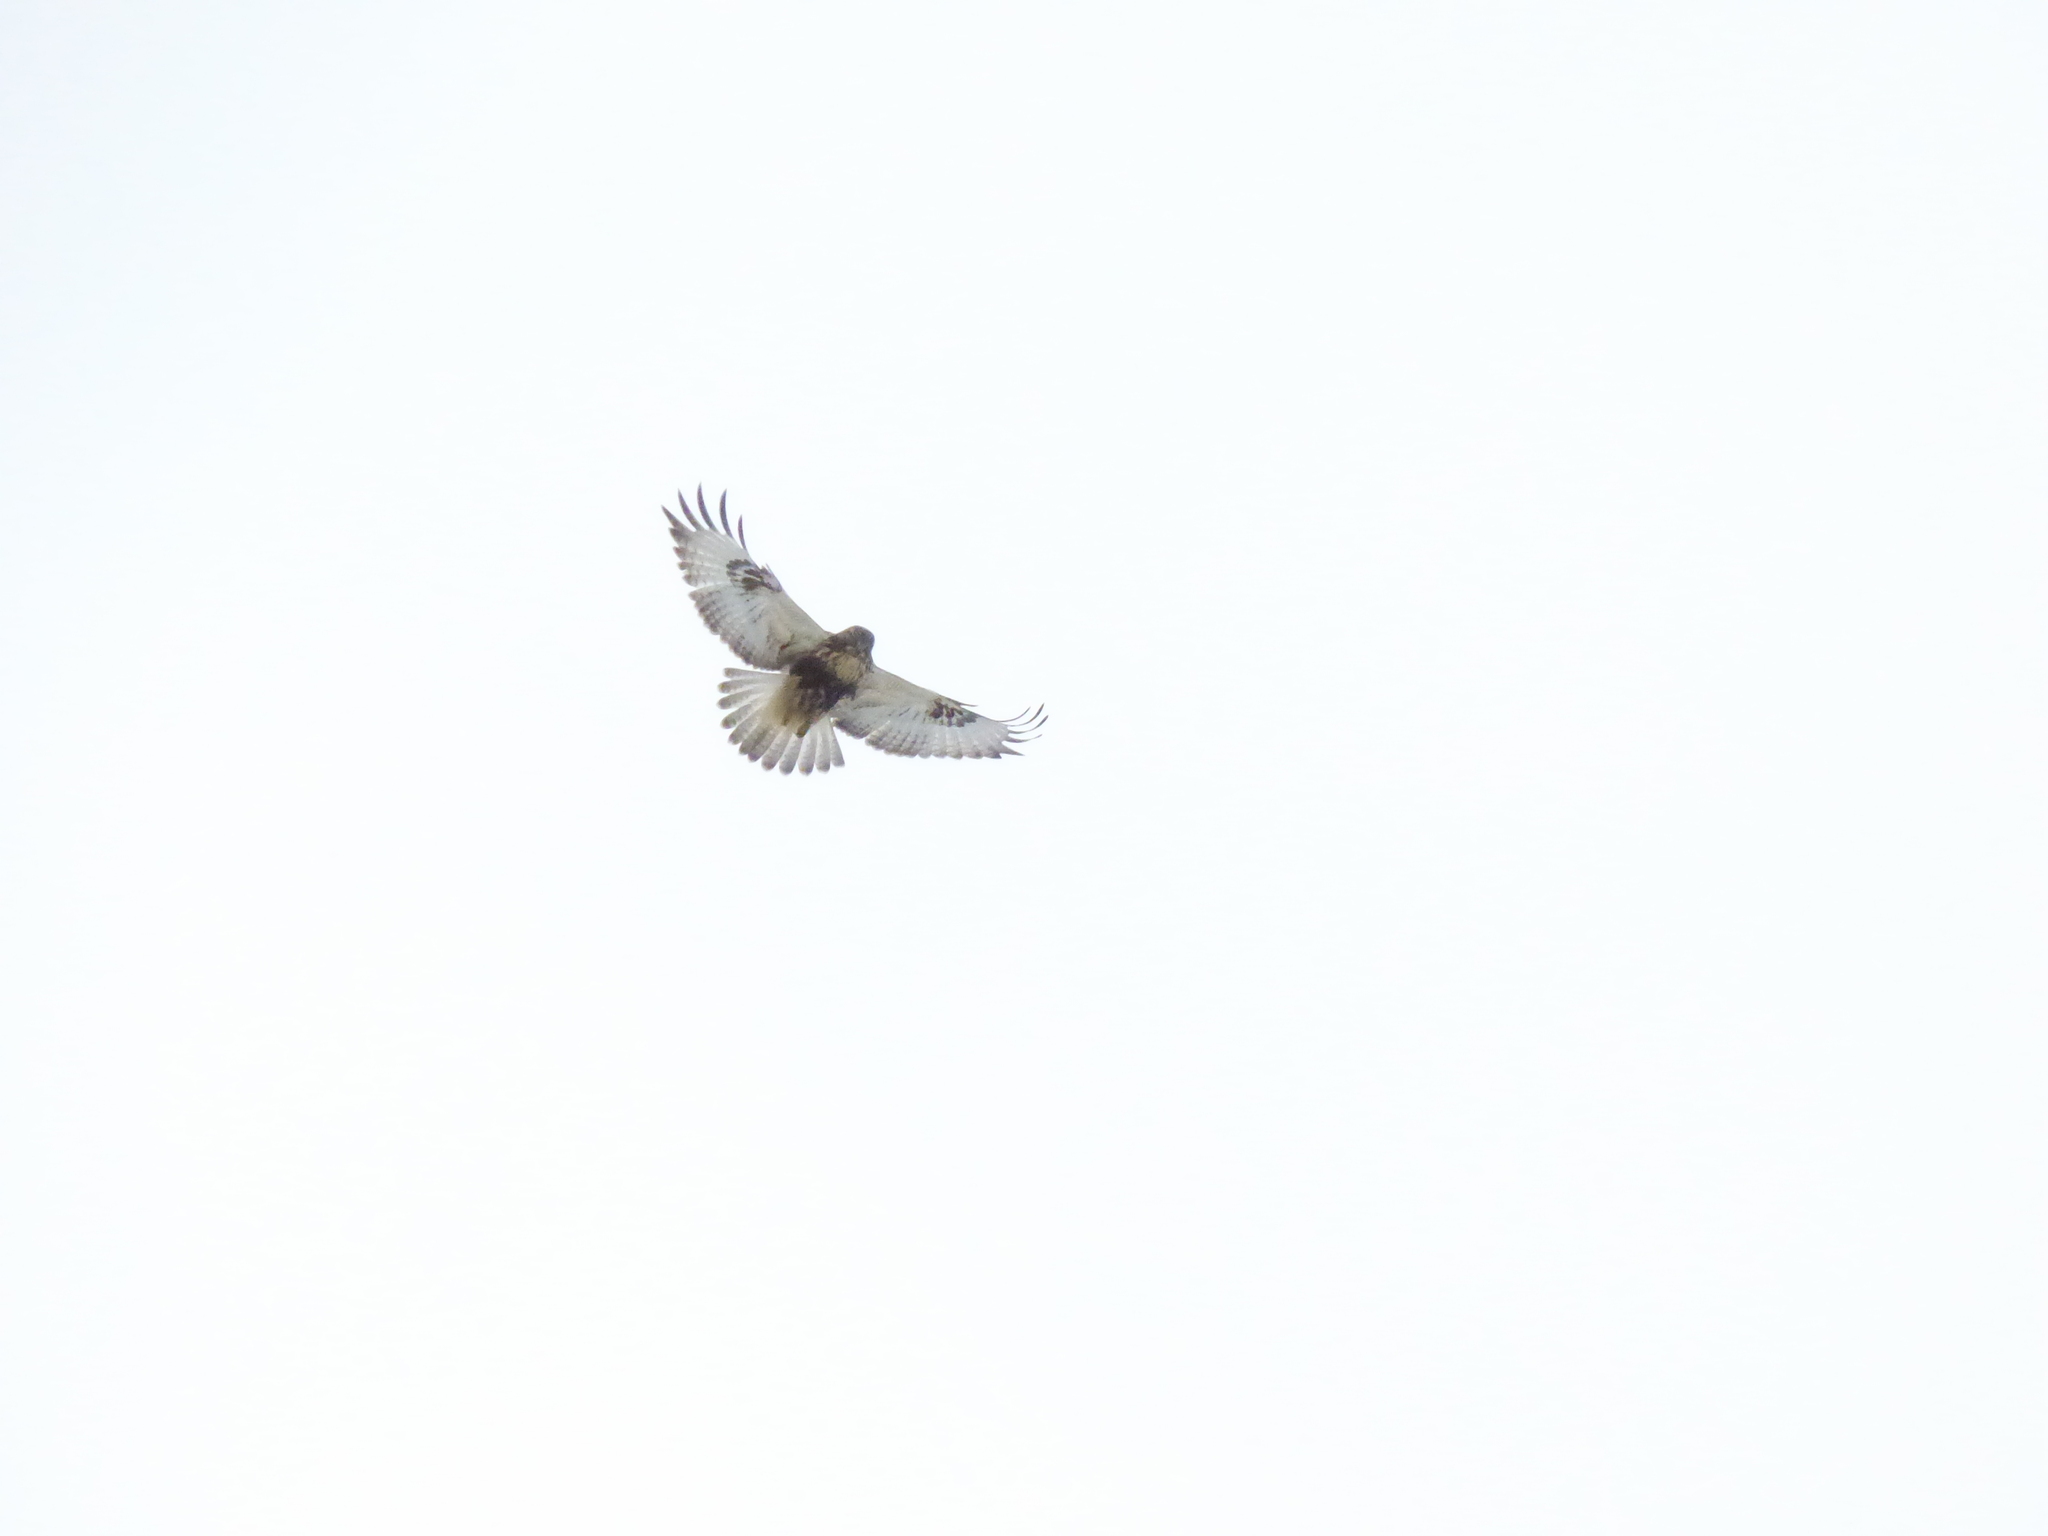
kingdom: Animalia
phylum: Chordata
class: Aves
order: Accipitriformes
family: Accipitridae
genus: Buteo
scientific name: Buteo lagopus
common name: Rough-legged buzzard
